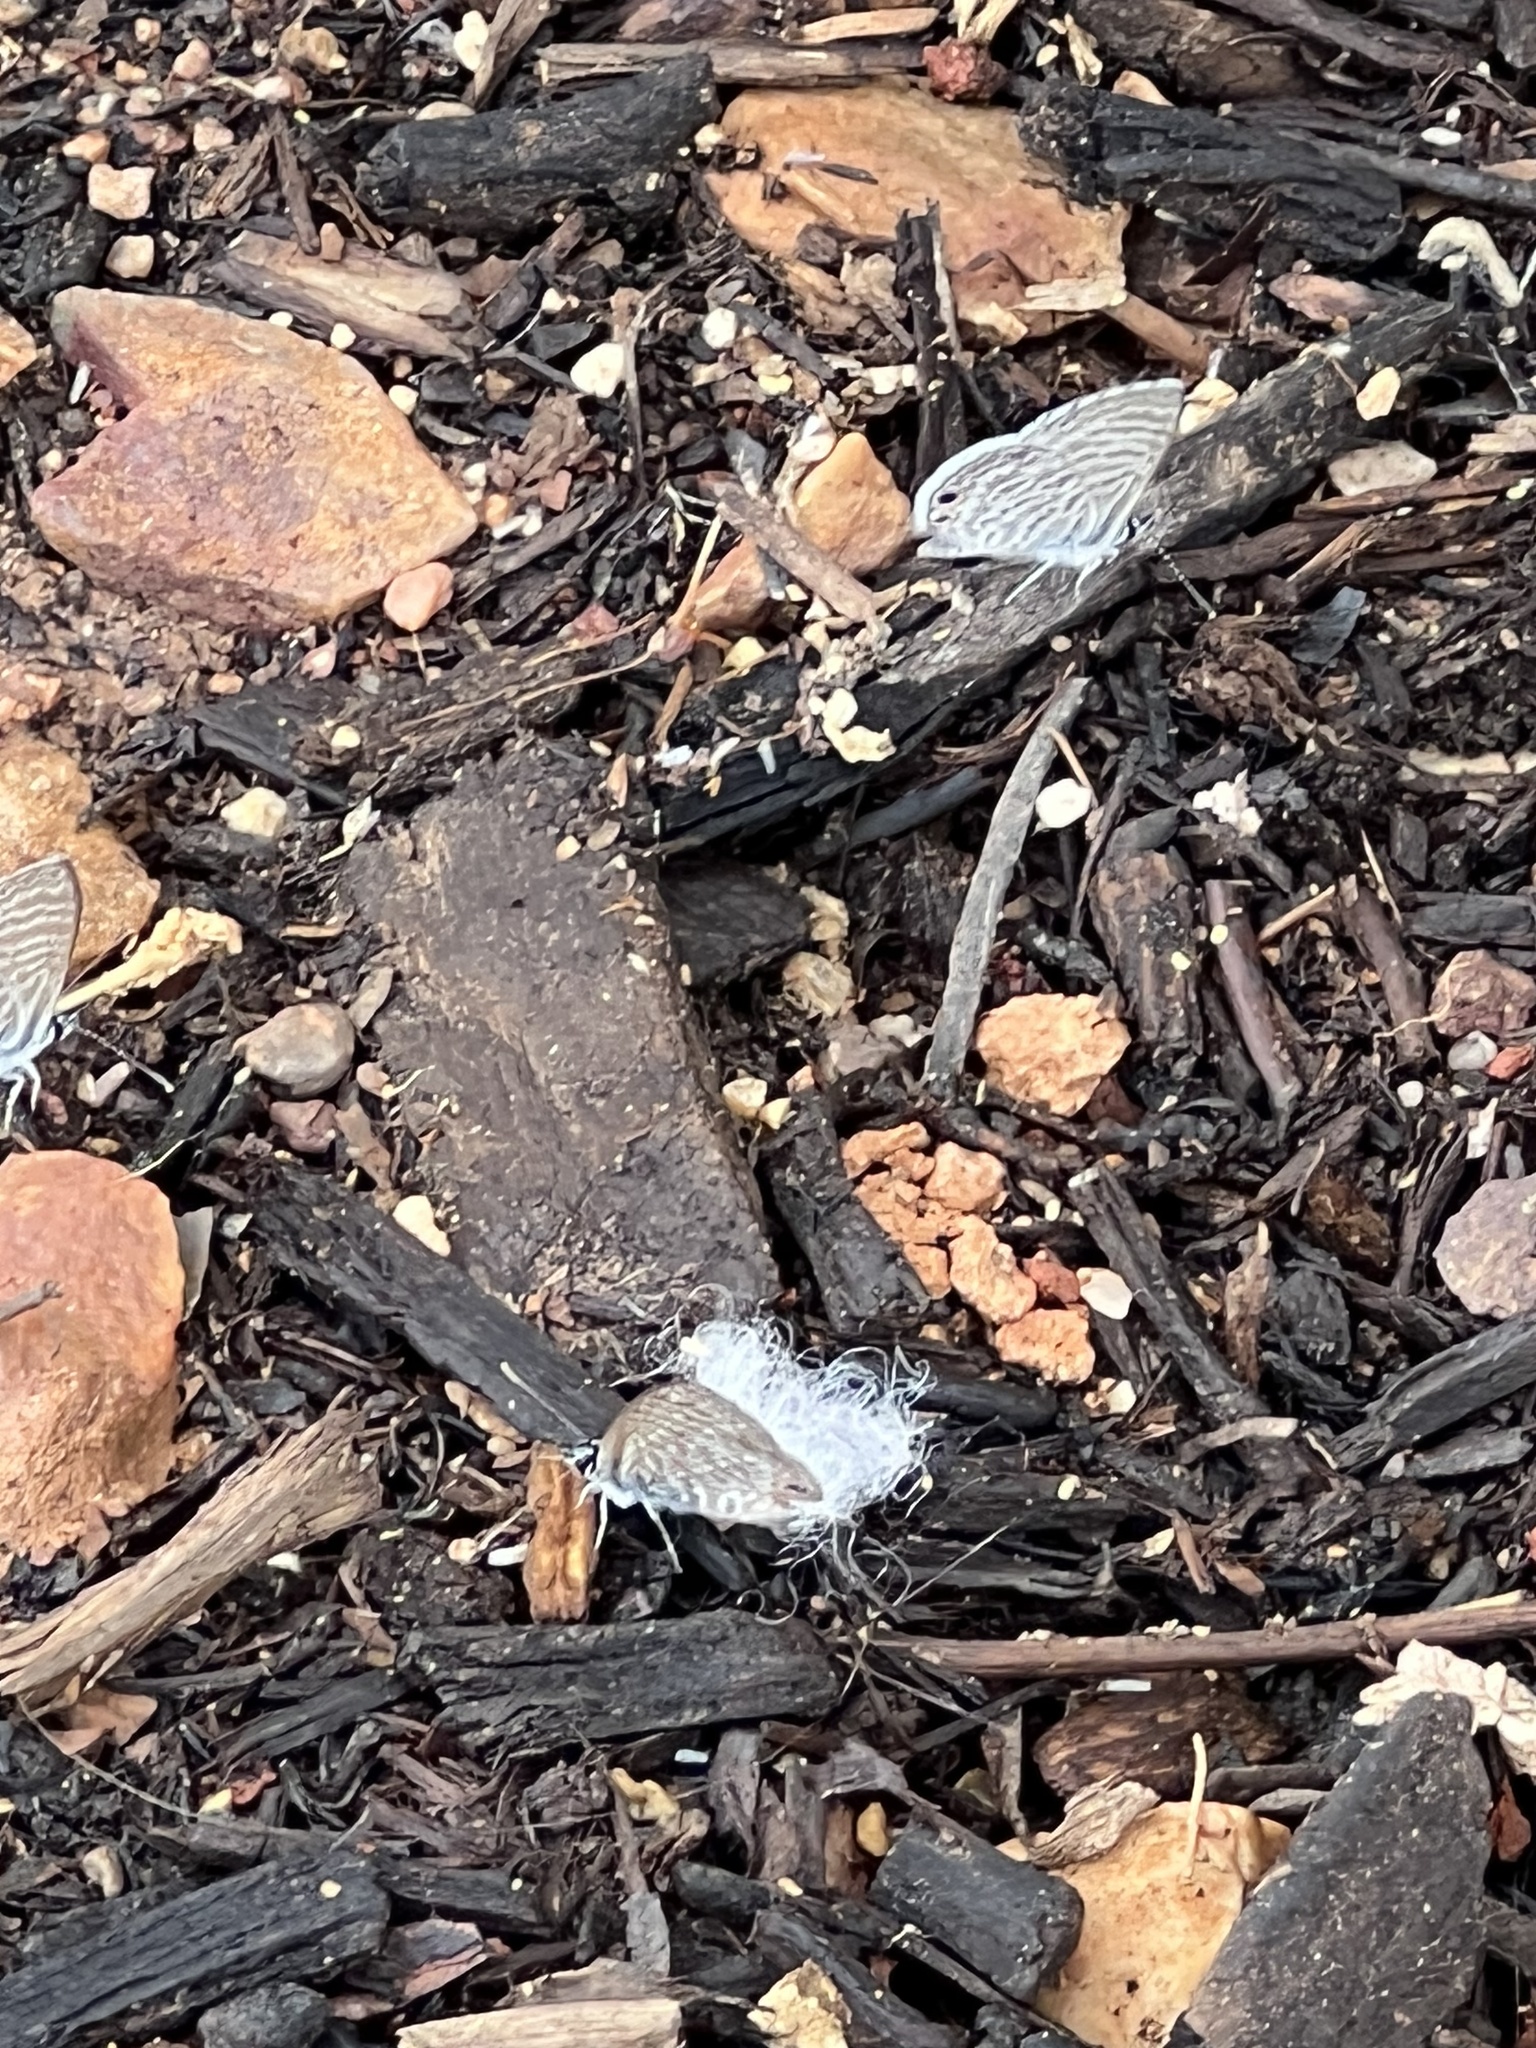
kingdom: Animalia
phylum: Arthropoda
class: Insecta
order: Lepidoptera
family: Lycaenidae
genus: Leptotes
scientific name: Leptotes marina
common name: Marine blue
